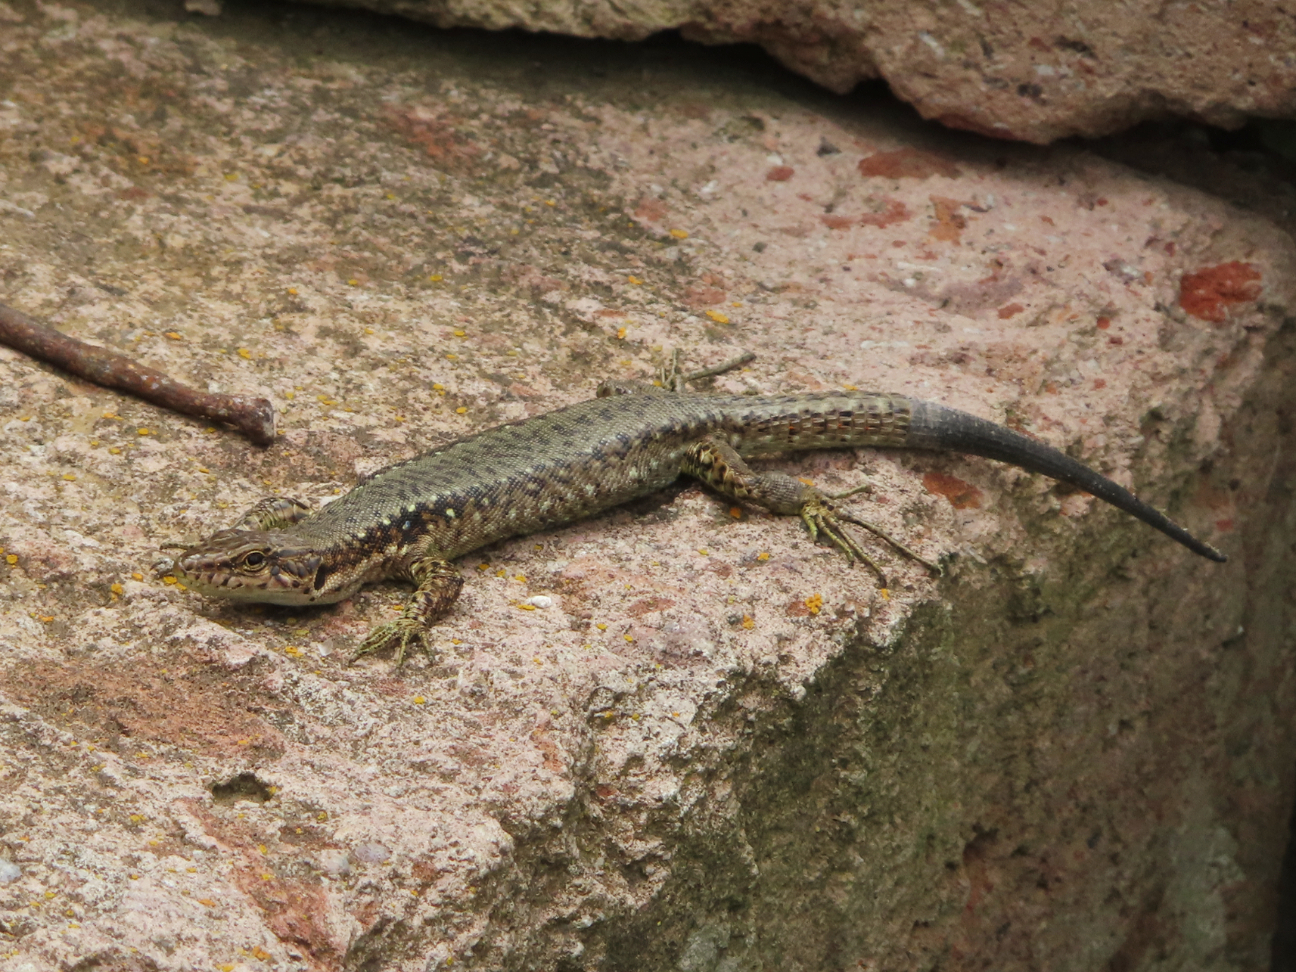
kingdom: Animalia
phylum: Chordata
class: Squamata
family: Lacertidae
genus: Darevskia
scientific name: Darevskia
